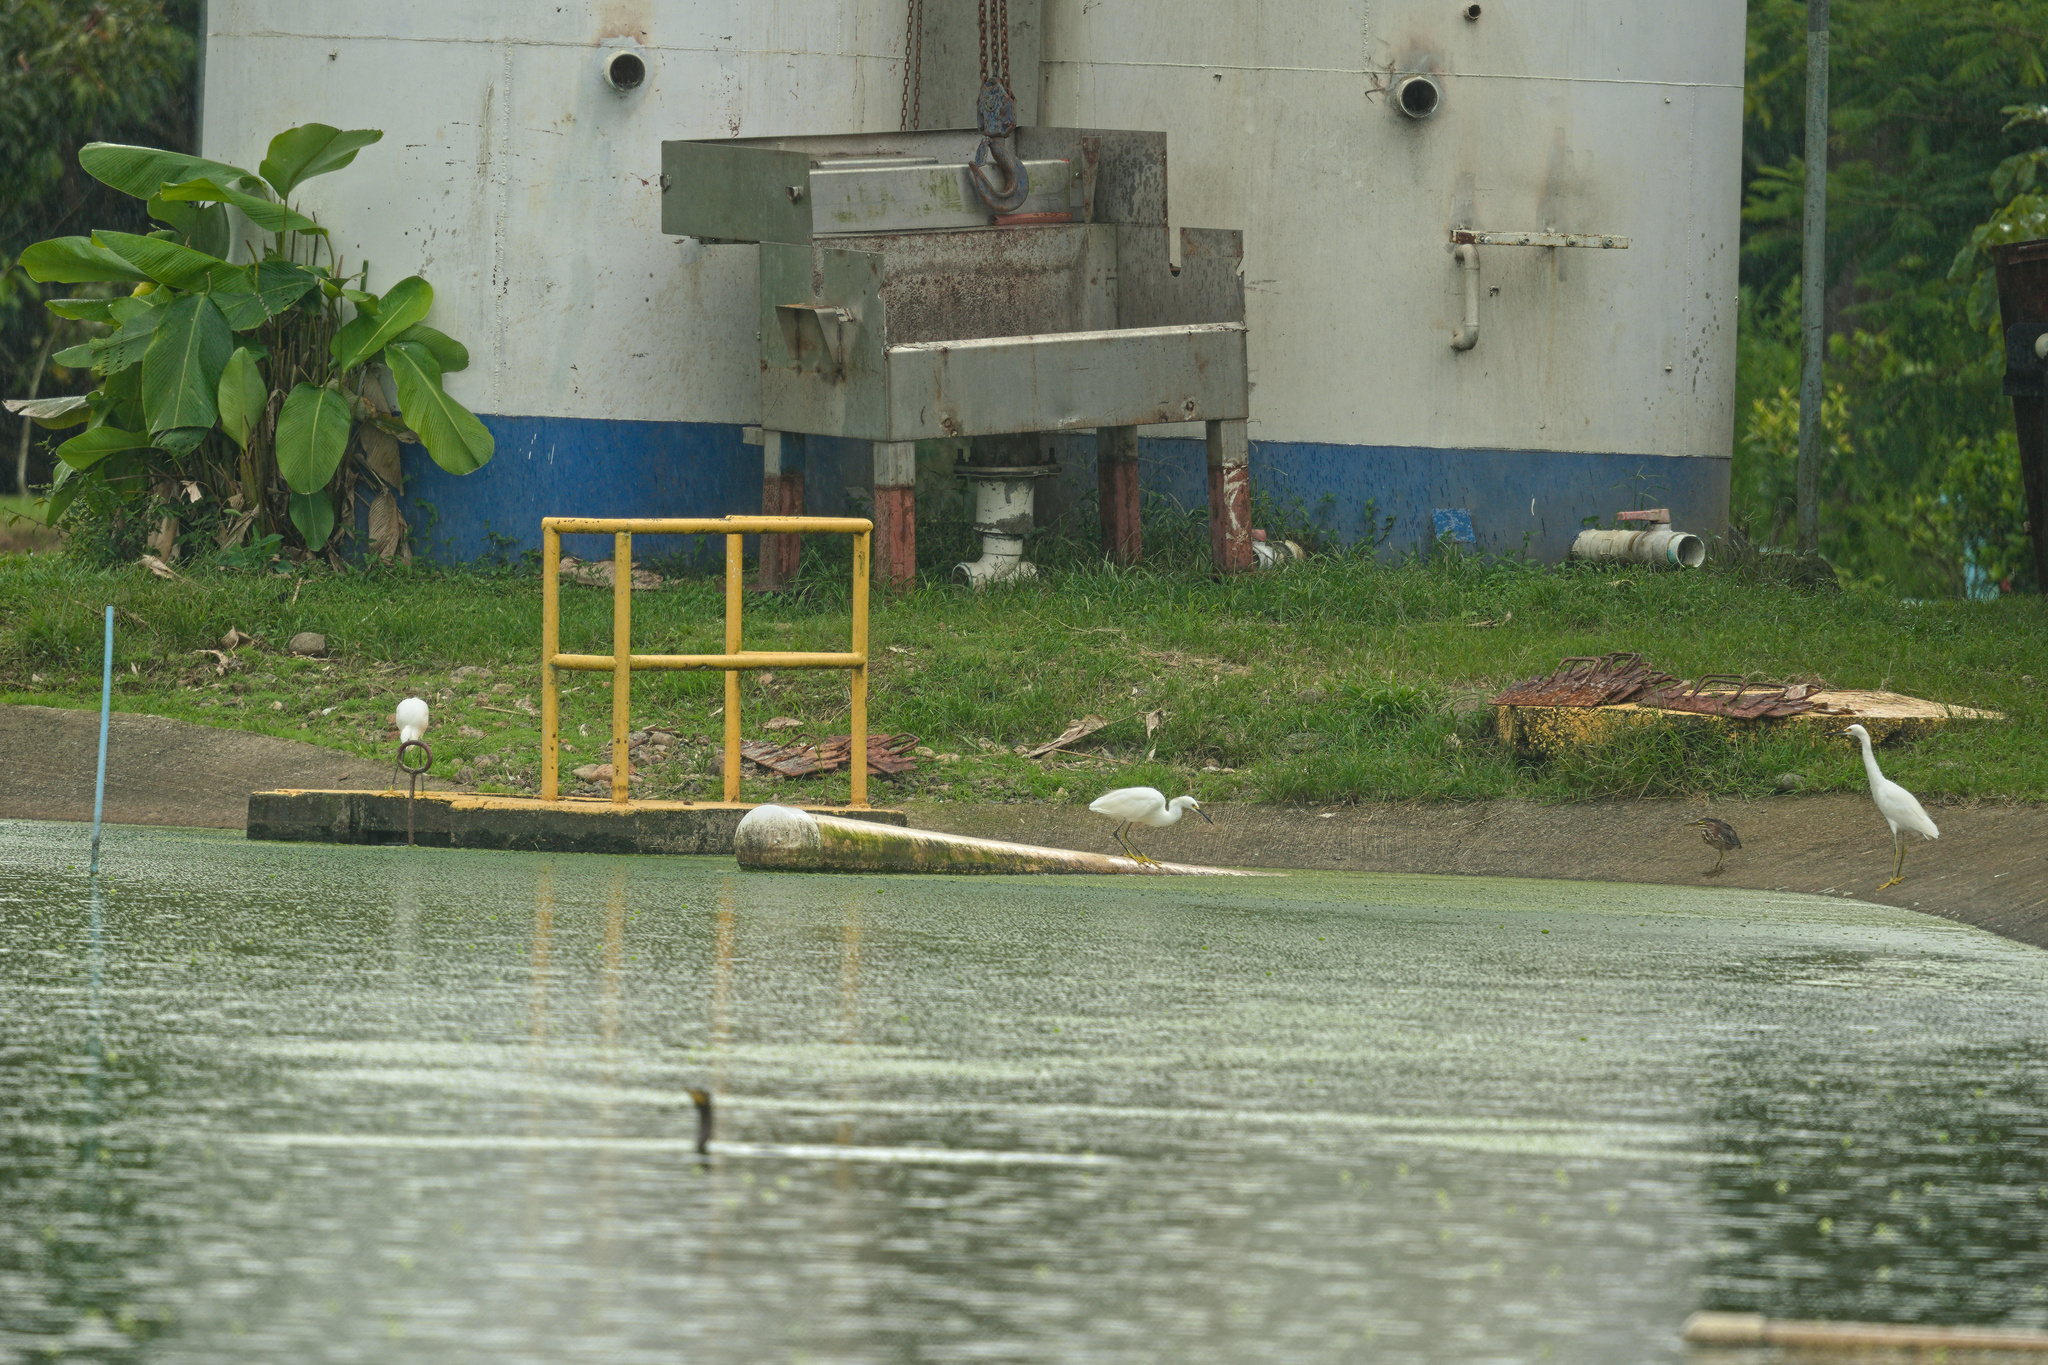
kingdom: Animalia
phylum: Chordata
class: Aves
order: Pelecaniformes
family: Ardeidae
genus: Egretta
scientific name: Egretta thula
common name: Snowy egret
